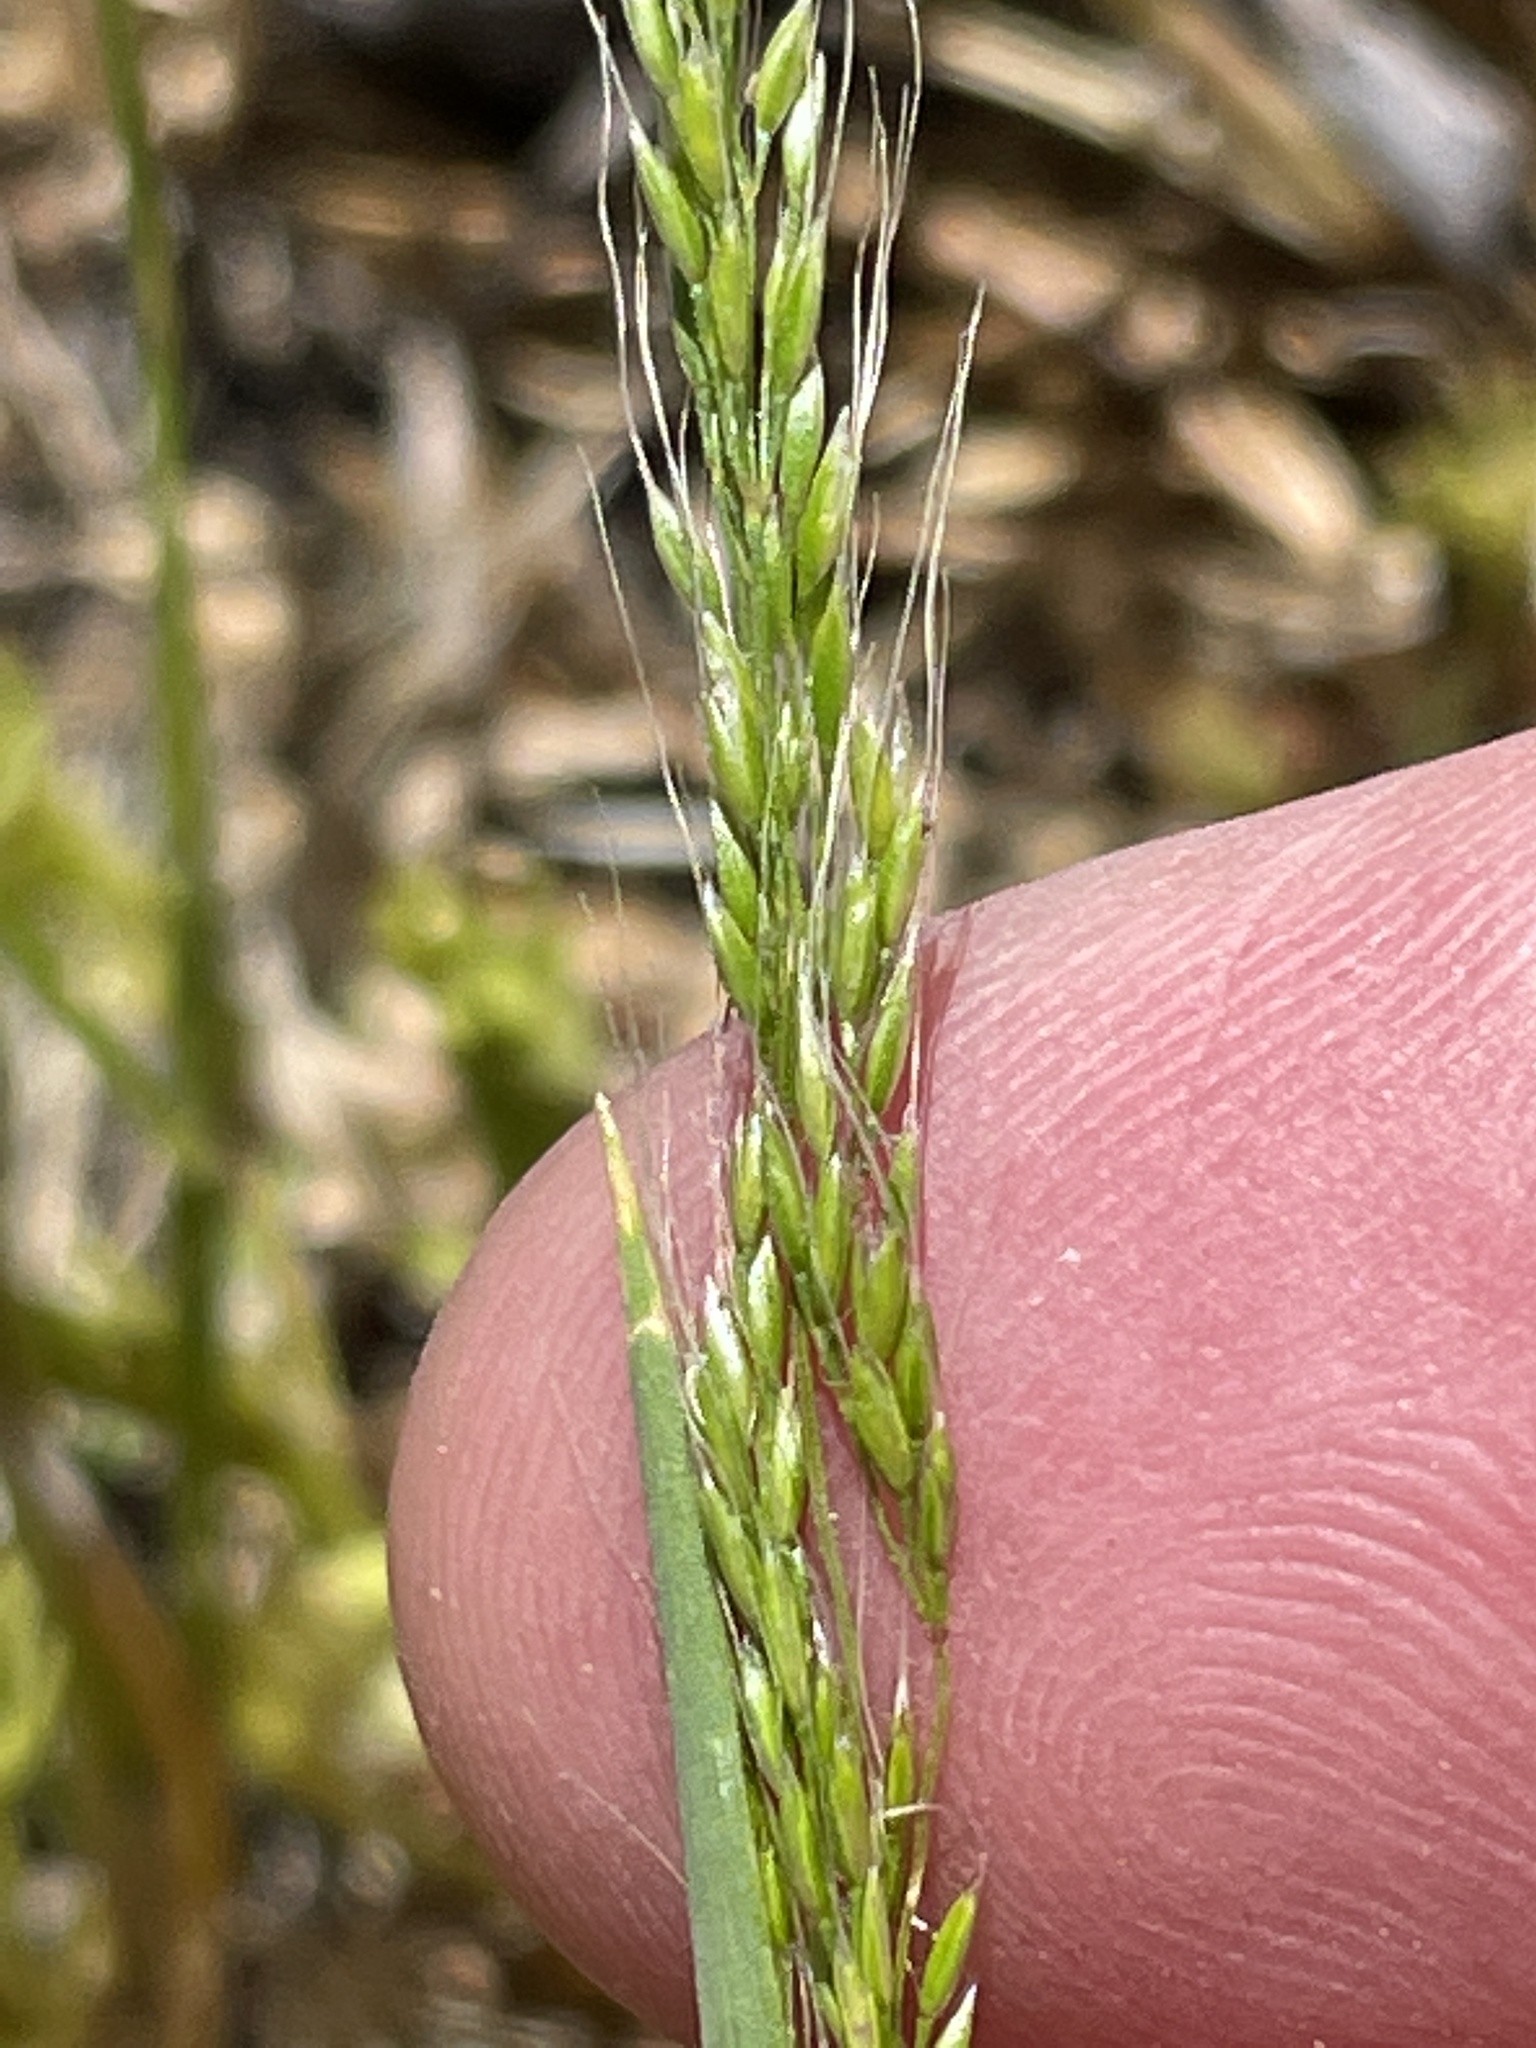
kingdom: Plantae
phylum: Tracheophyta
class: Liliopsida
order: Poales
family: Poaceae
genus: Apera
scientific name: Apera interrupta
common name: Dense silky-bent
